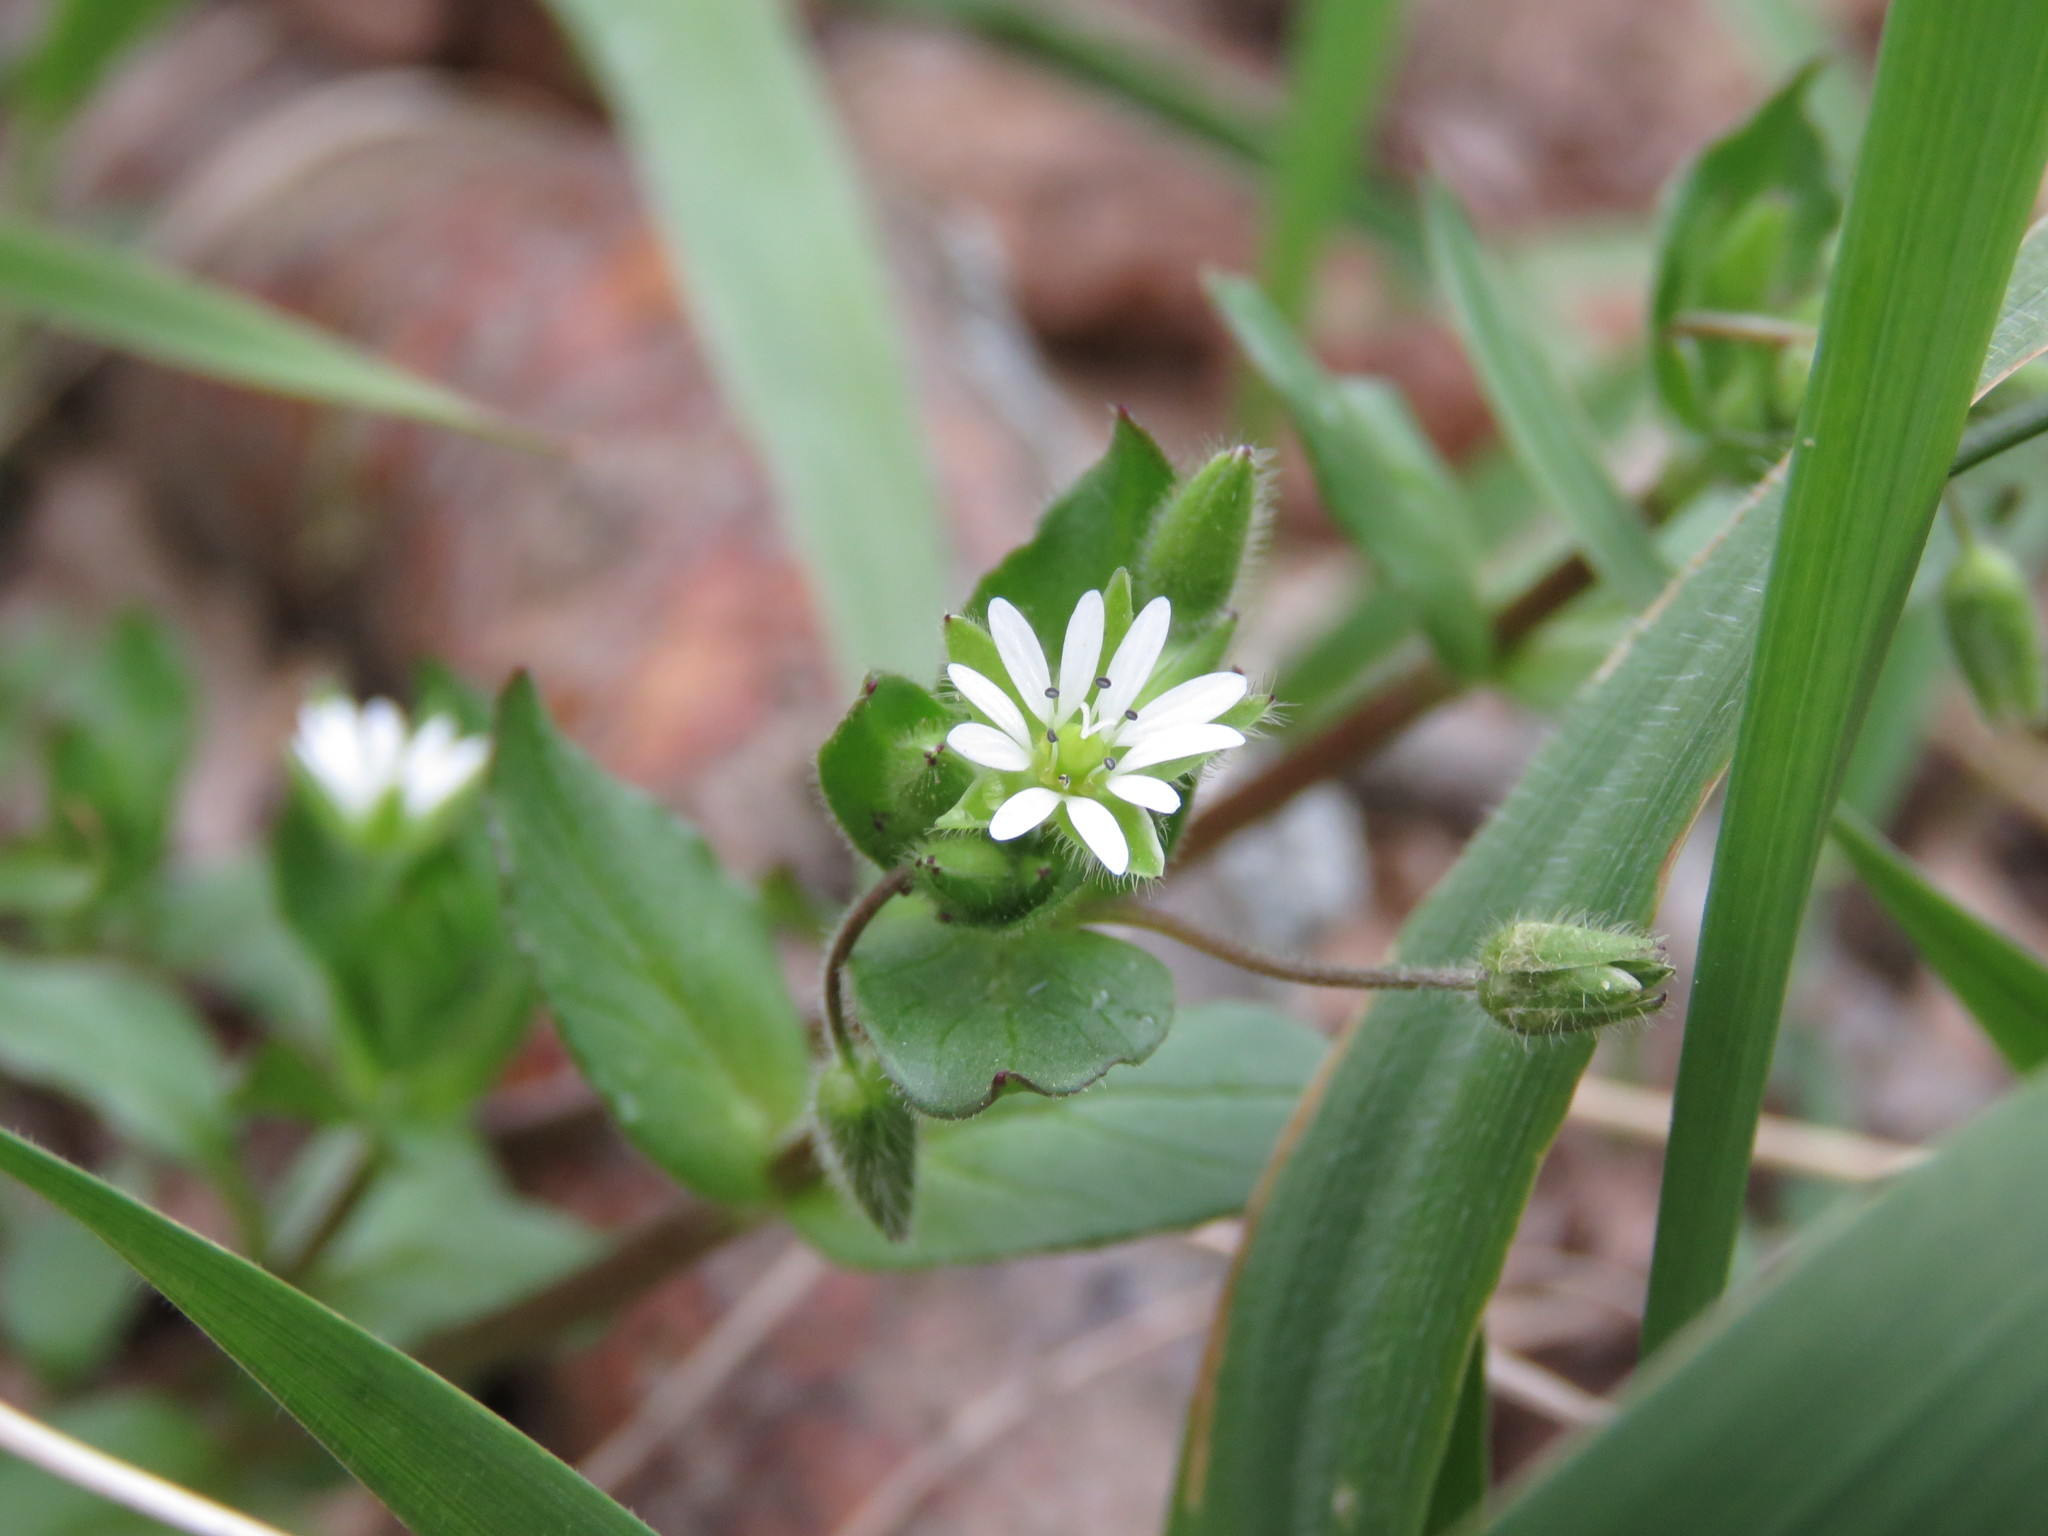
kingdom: Plantae
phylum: Tracheophyta
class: Magnoliopsida
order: Caryophyllales
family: Caryophyllaceae
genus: Stellaria
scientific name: Stellaria media
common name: Common chickweed
